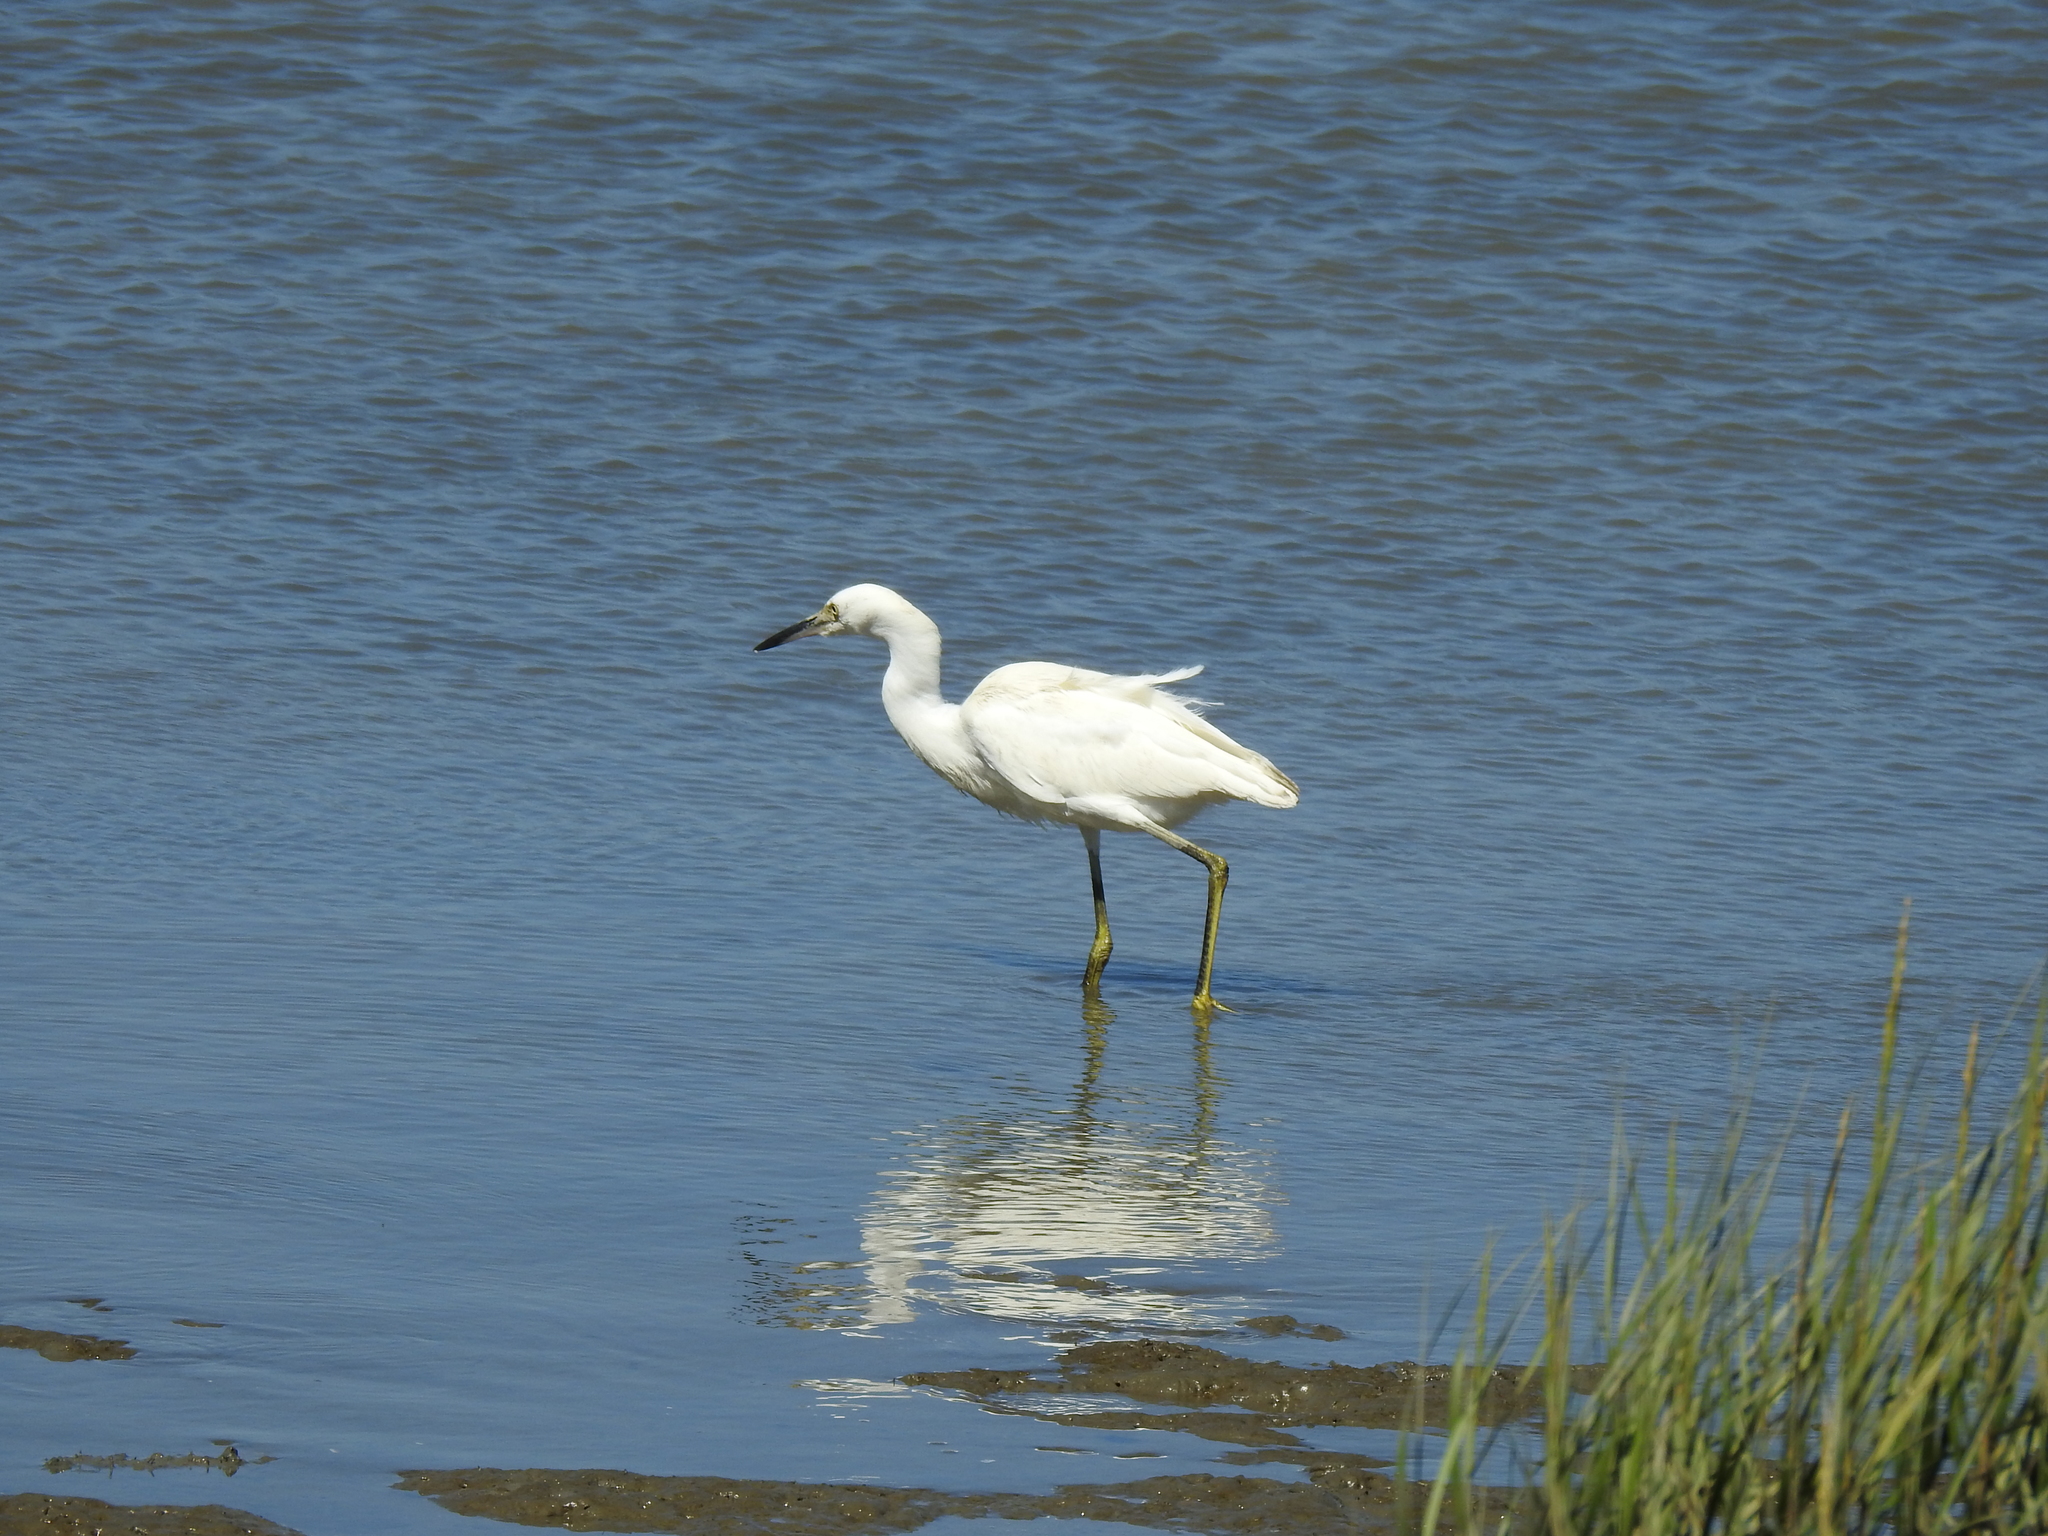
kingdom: Animalia
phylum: Chordata
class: Aves
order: Pelecaniformes
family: Ardeidae
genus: Egretta
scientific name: Egretta thula
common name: Snowy egret
